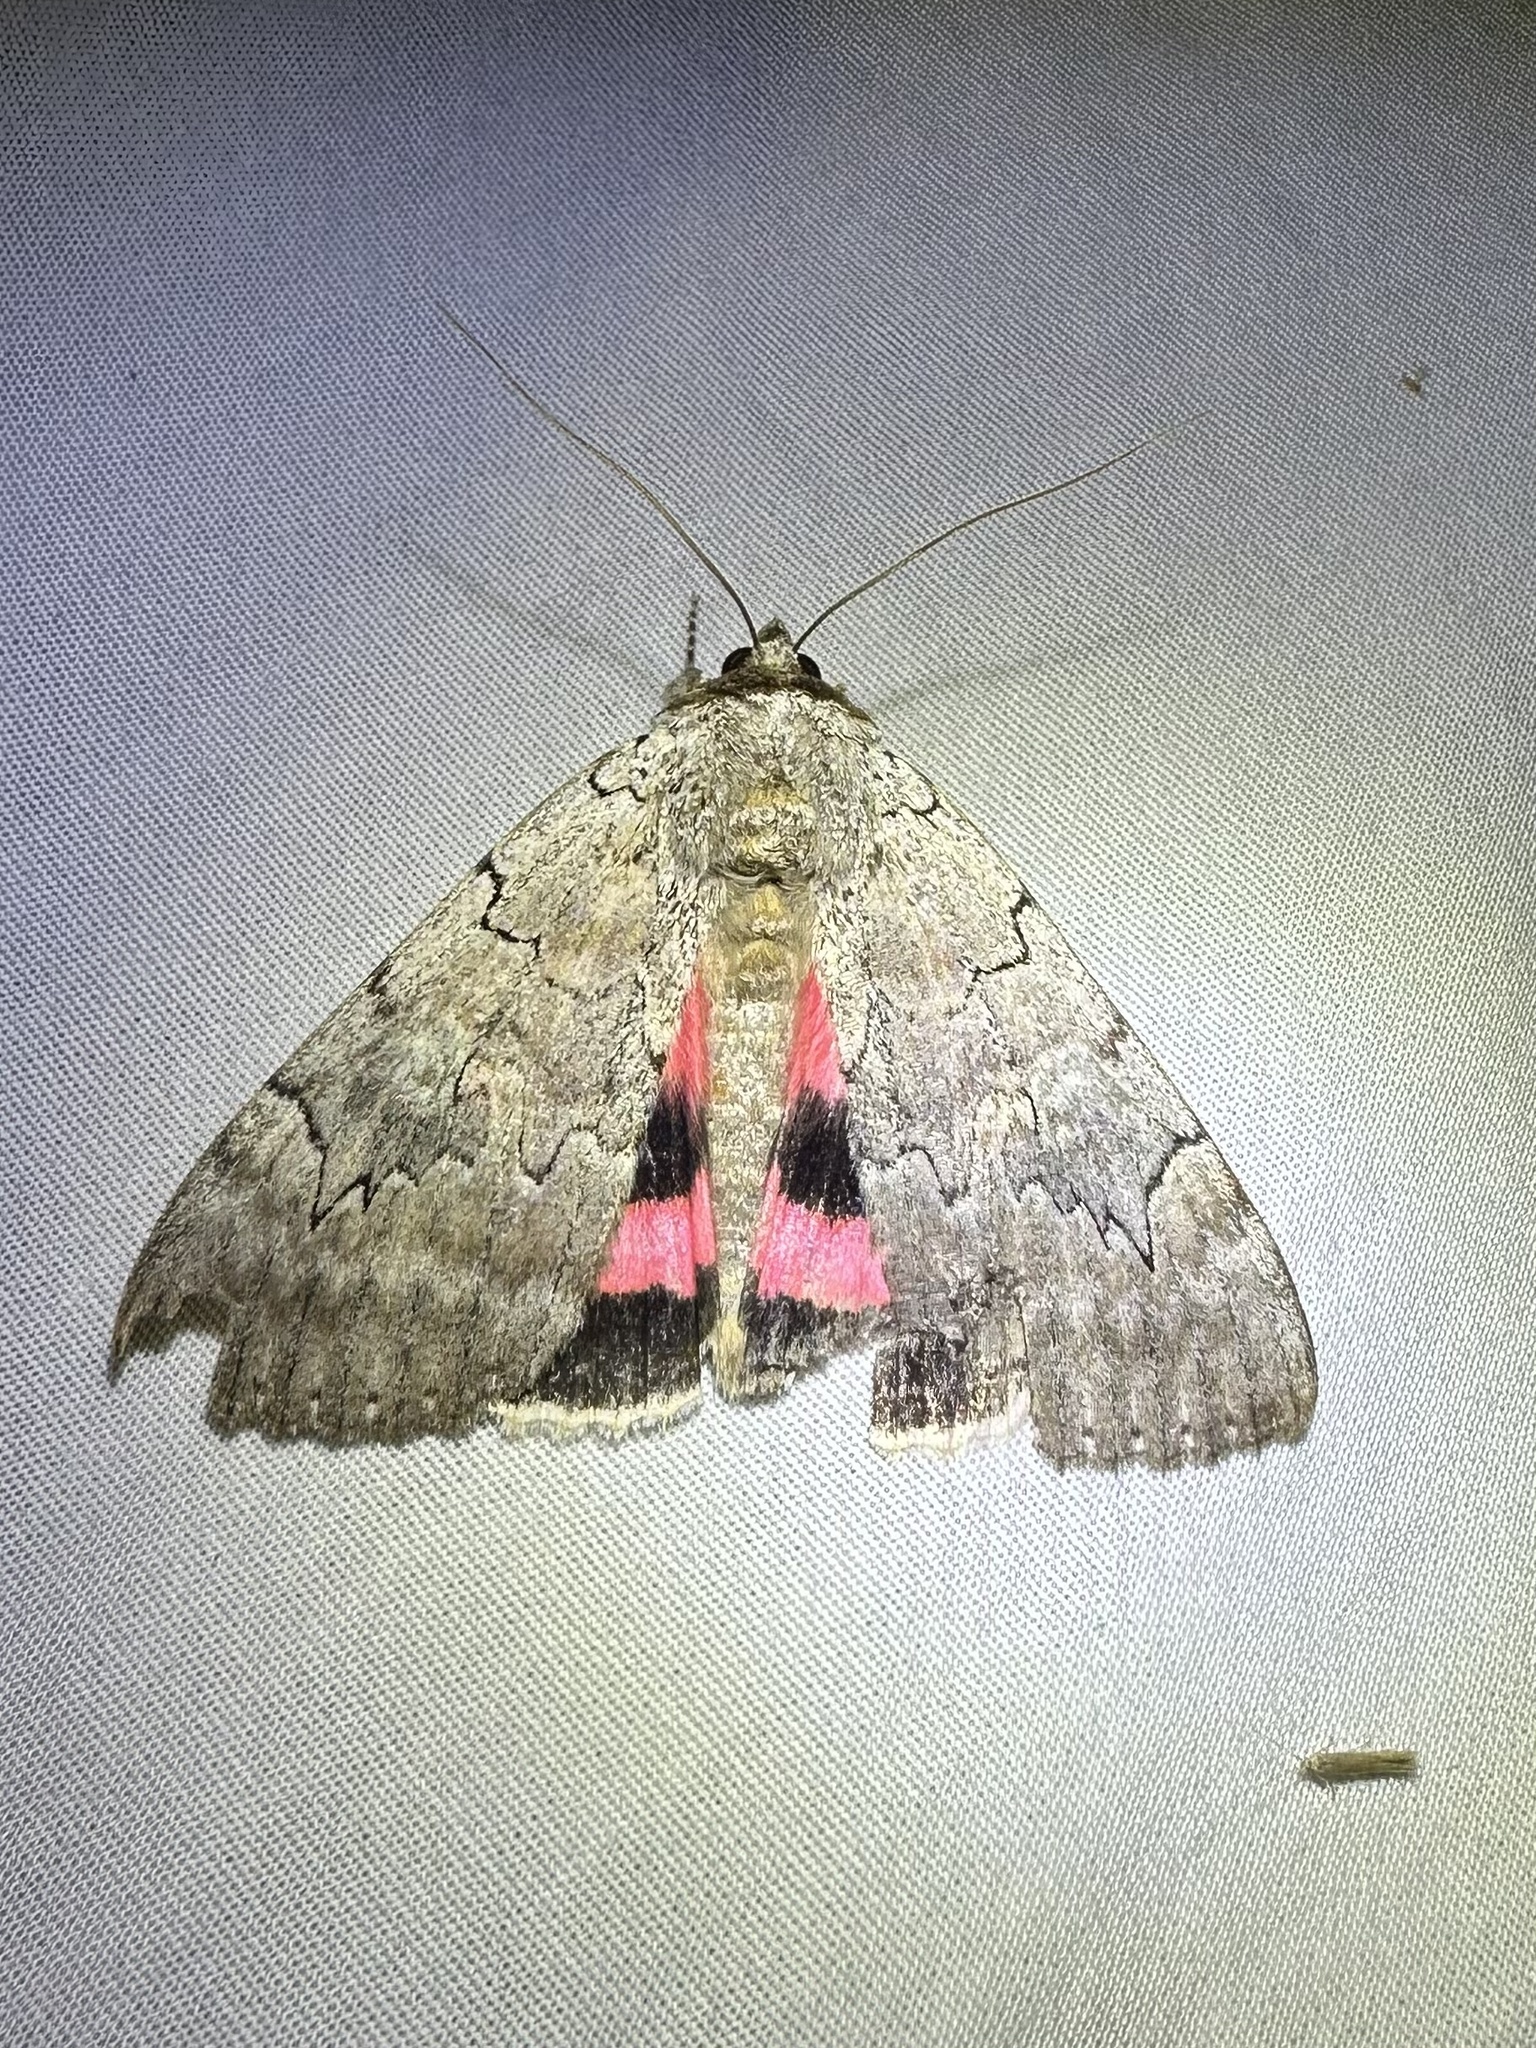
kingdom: Animalia
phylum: Arthropoda
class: Insecta
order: Lepidoptera
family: Erebidae
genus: Catocala
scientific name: Catocala concumbens
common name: Pink underwing
